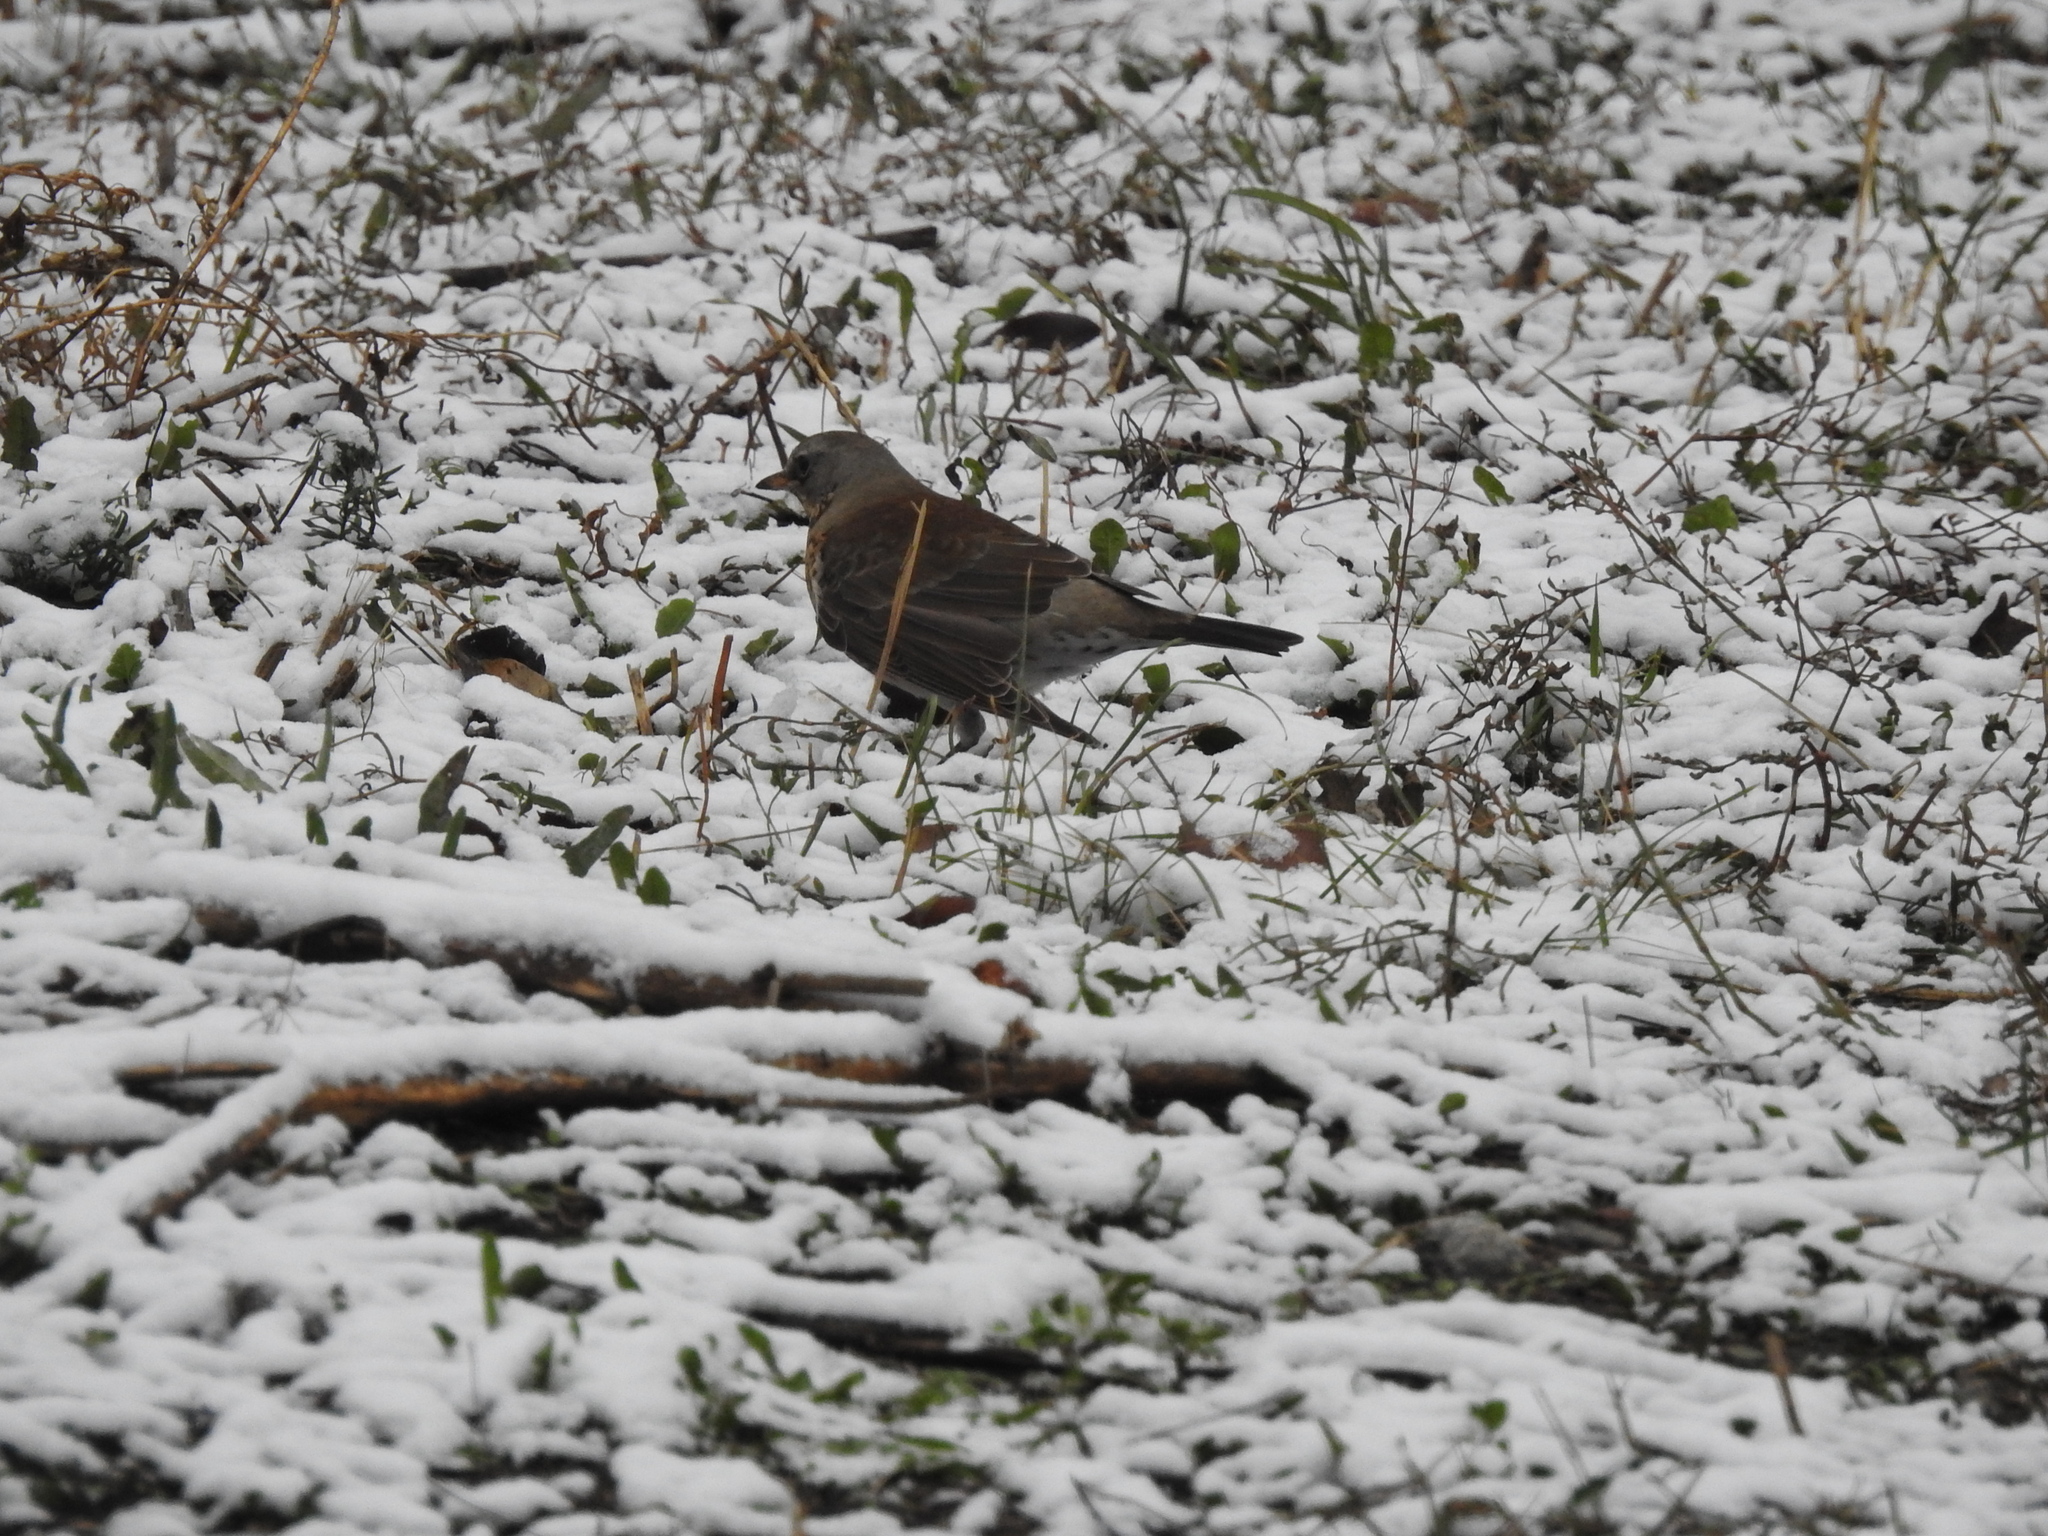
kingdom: Animalia
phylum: Chordata
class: Aves
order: Passeriformes
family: Turdidae
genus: Turdus
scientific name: Turdus pilaris
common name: Fieldfare
